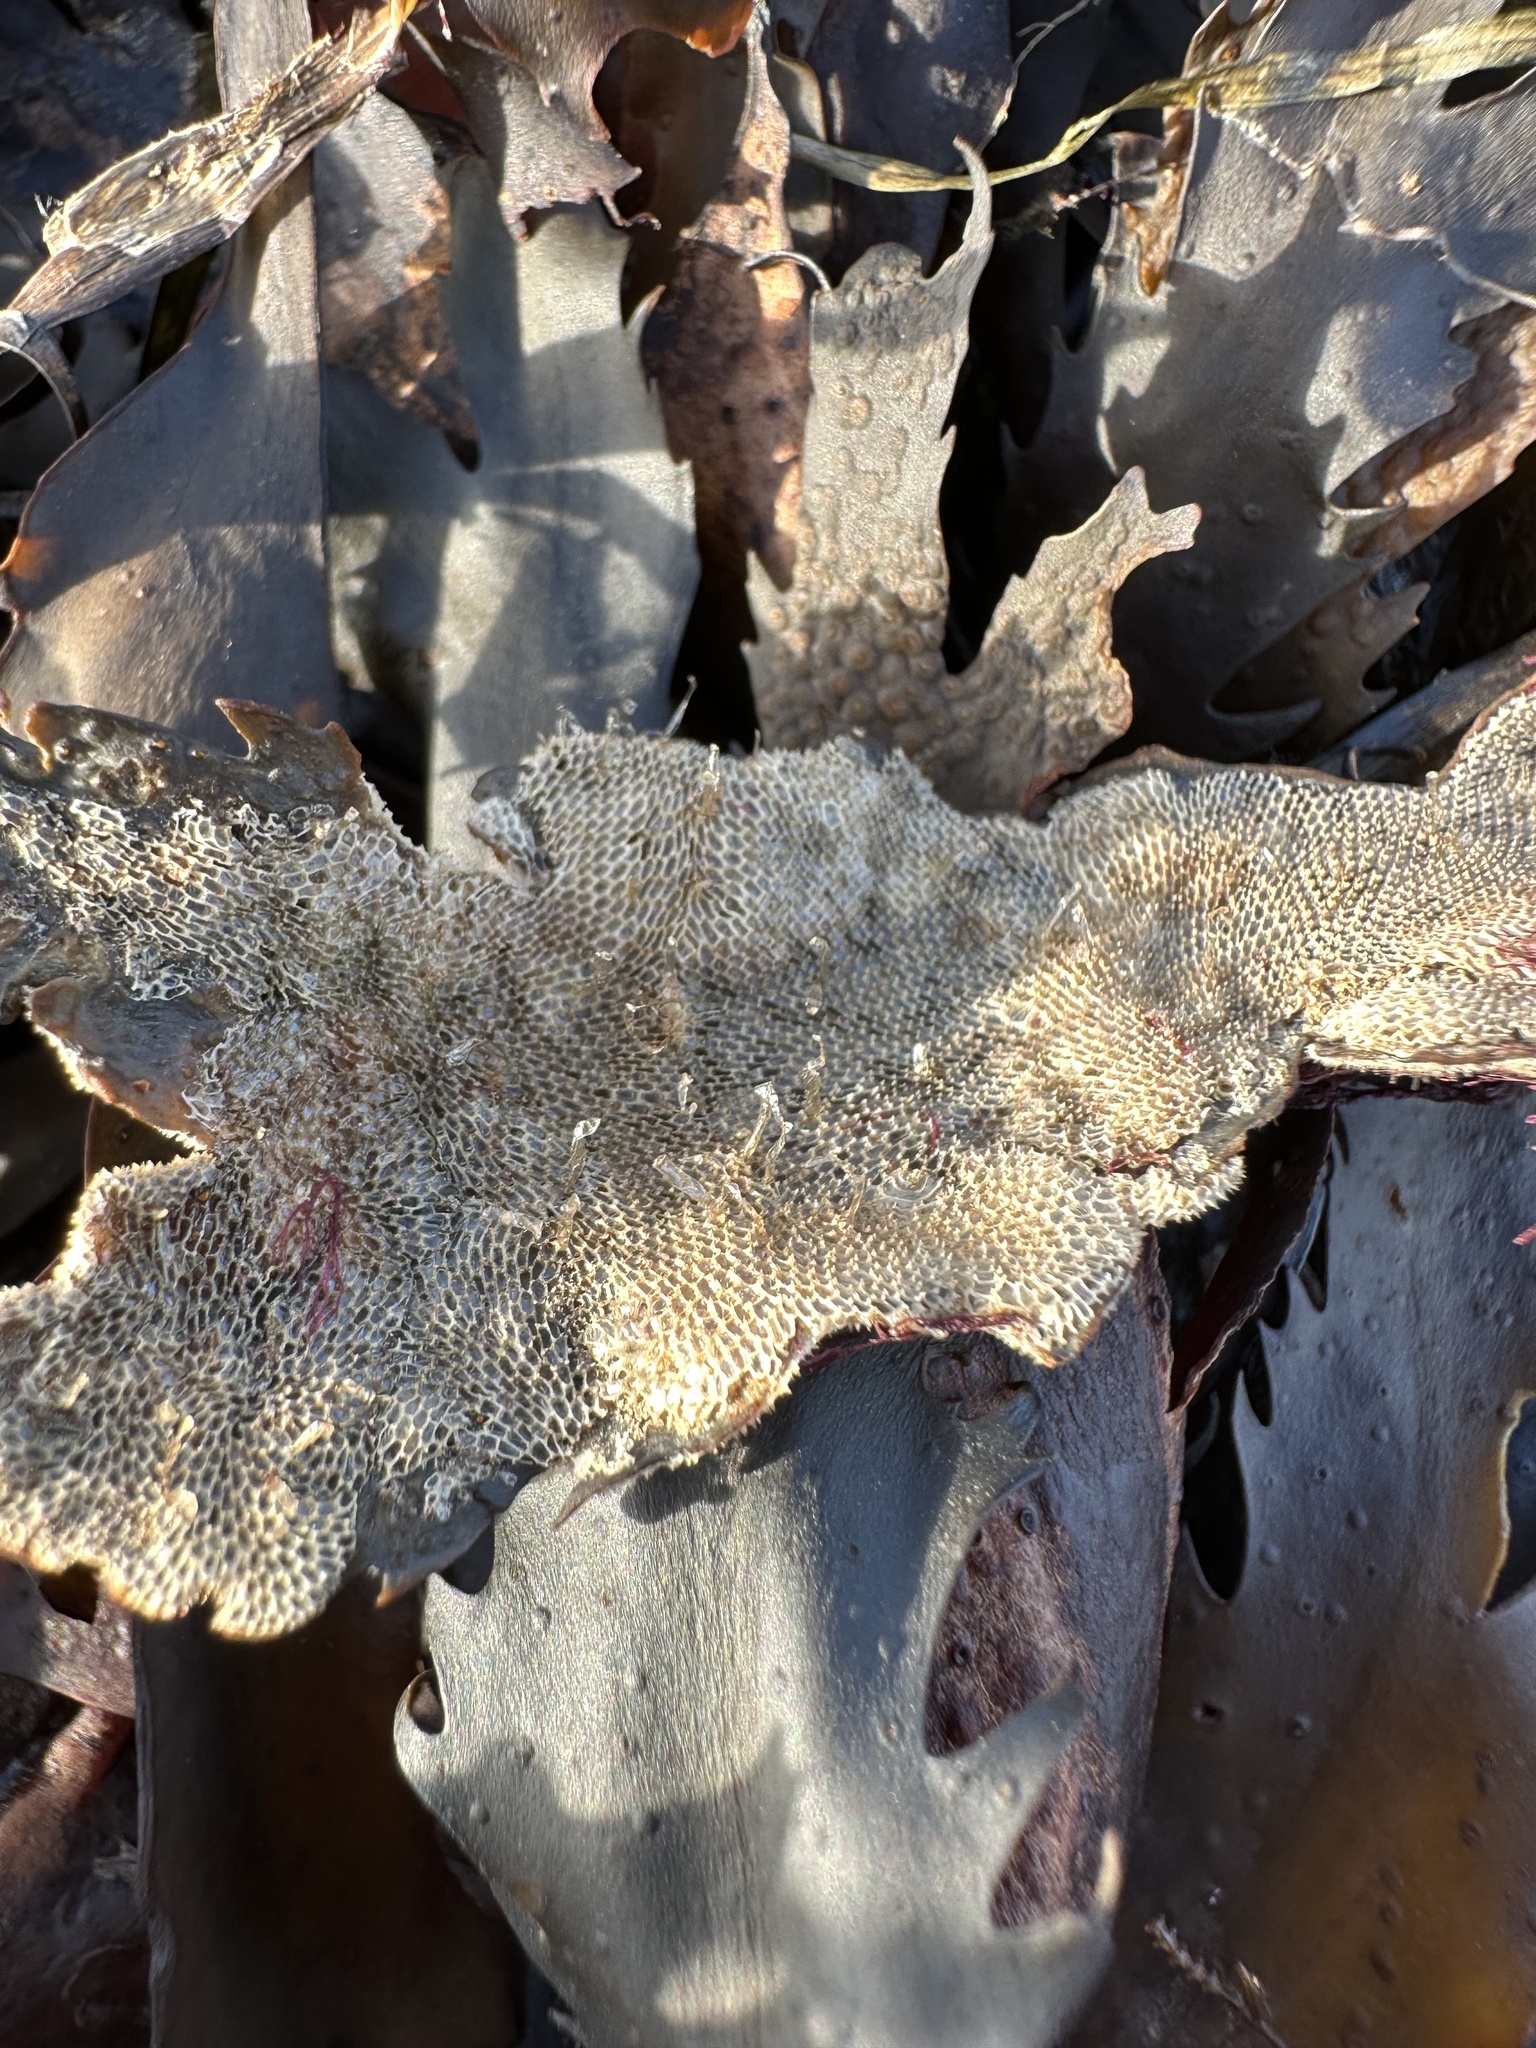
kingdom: Animalia
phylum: Bryozoa
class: Gymnolaemata
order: Cheilostomatida
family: Membraniporidae
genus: Membranipora
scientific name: Membranipora membranacea
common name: Sea mat
